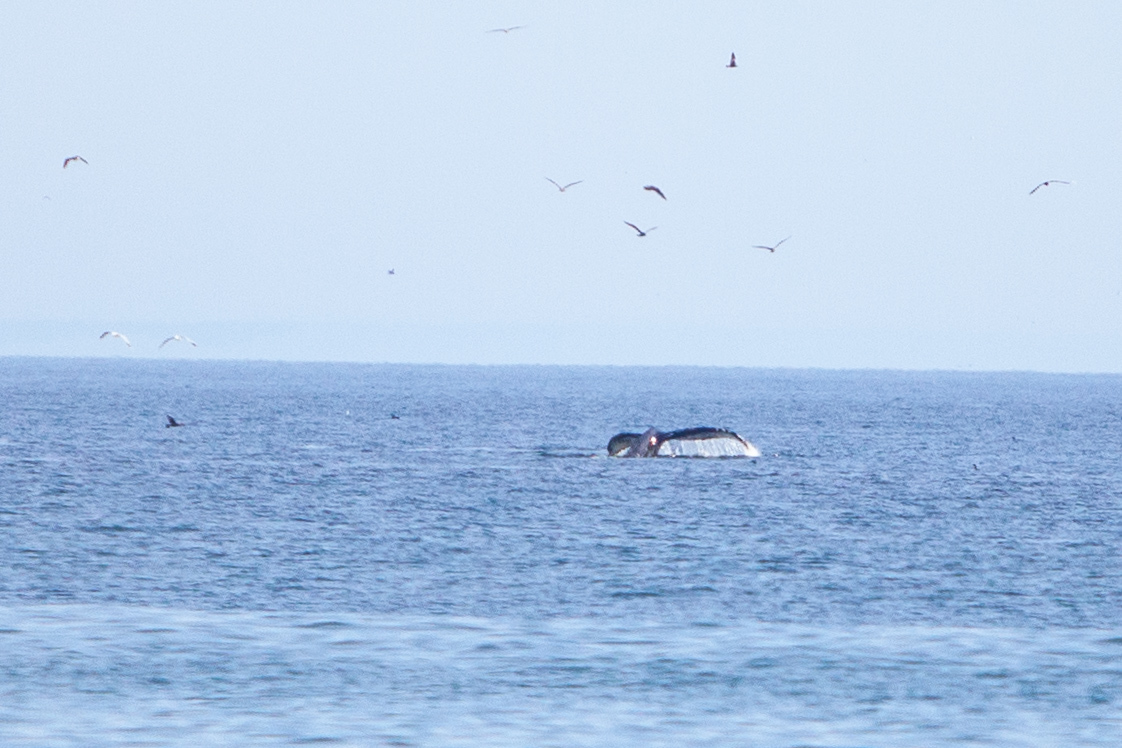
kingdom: Animalia
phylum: Chordata
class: Mammalia
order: Cetacea
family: Balaenopteridae
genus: Megaptera
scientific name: Megaptera novaeangliae
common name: Humpback whale
